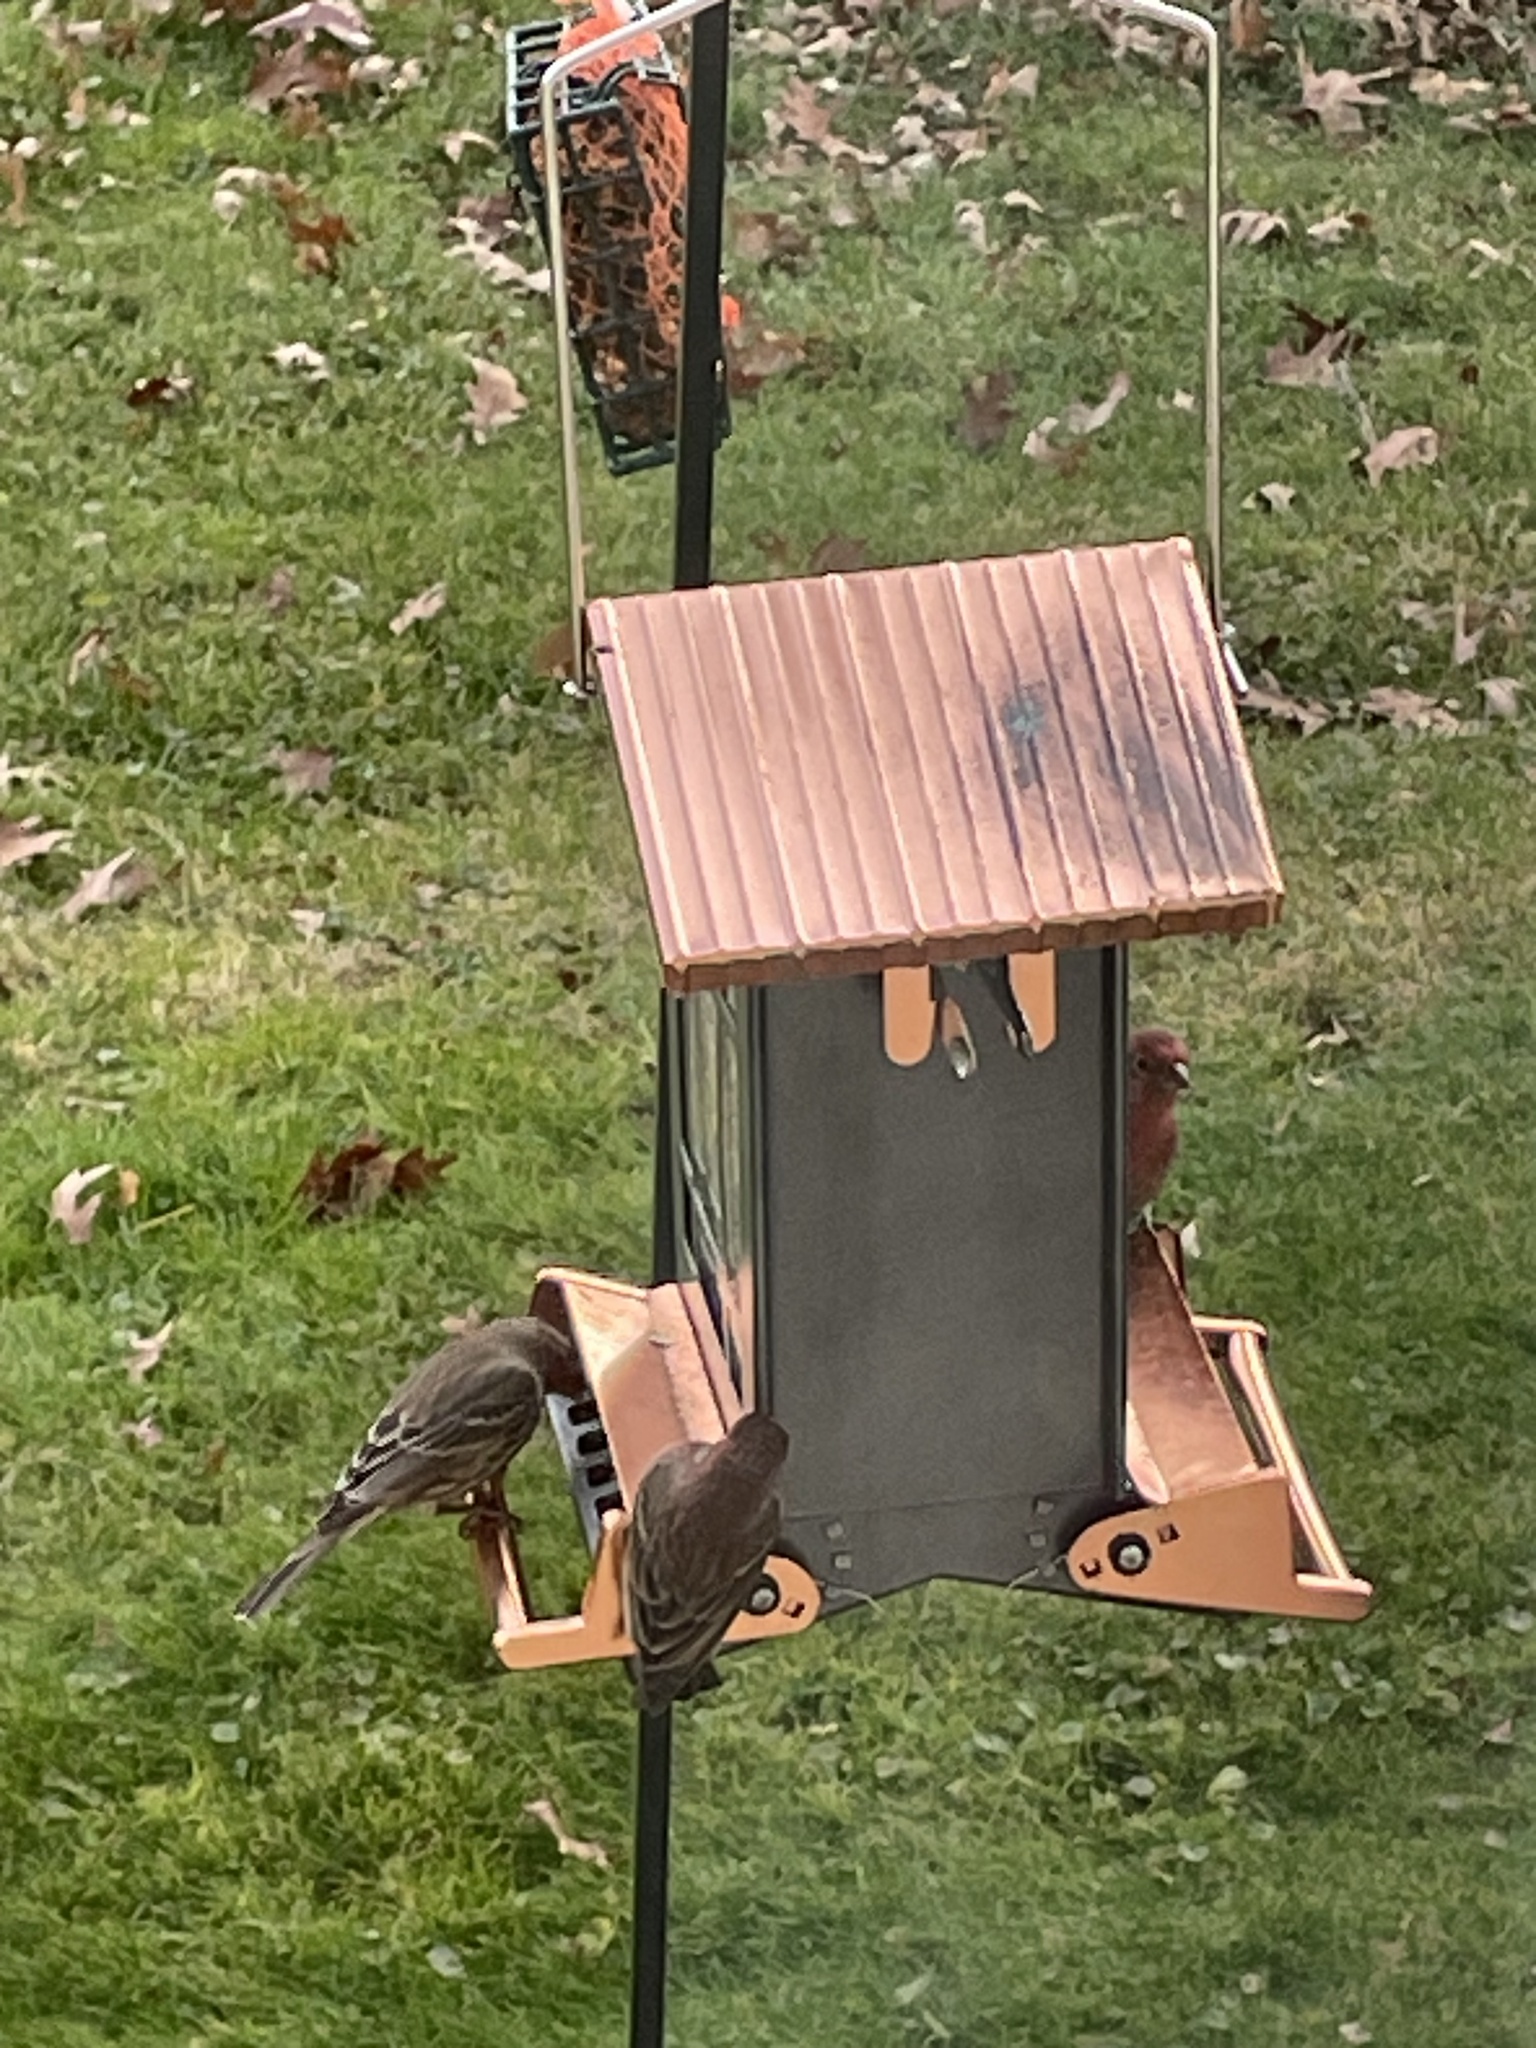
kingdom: Animalia
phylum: Chordata
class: Aves
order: Passeriformes
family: Fringillidae
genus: Haemorhous
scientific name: Haemorhous mexicanus
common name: House finch
